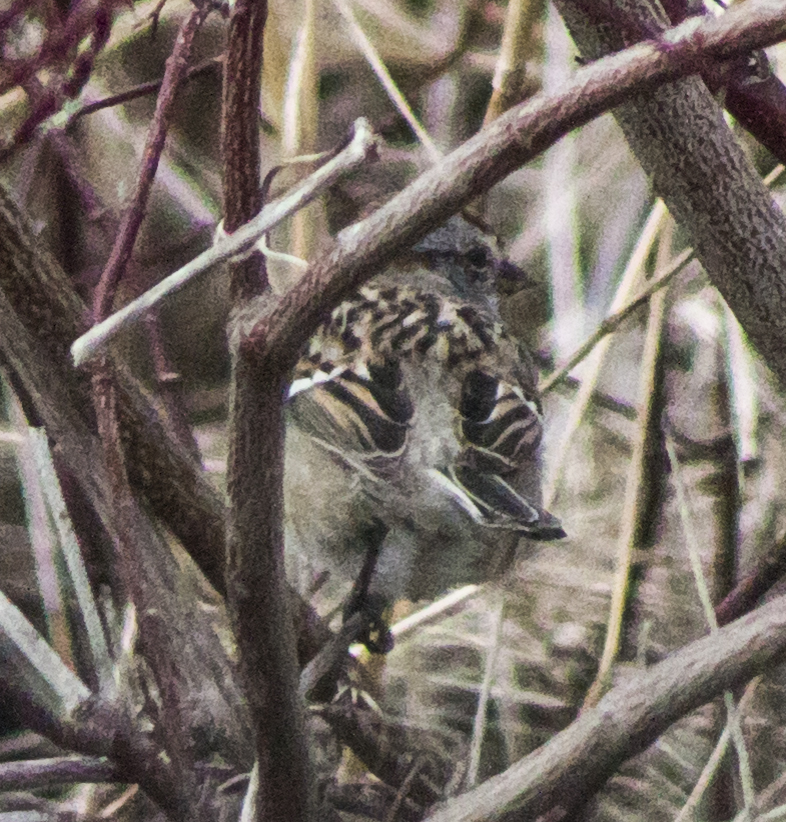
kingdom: Animalia
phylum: Chordata
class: Aves
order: Passeriformes
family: Passerellidae
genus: Spizelloides
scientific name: Spizelloides arborea
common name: American tree sparrow
